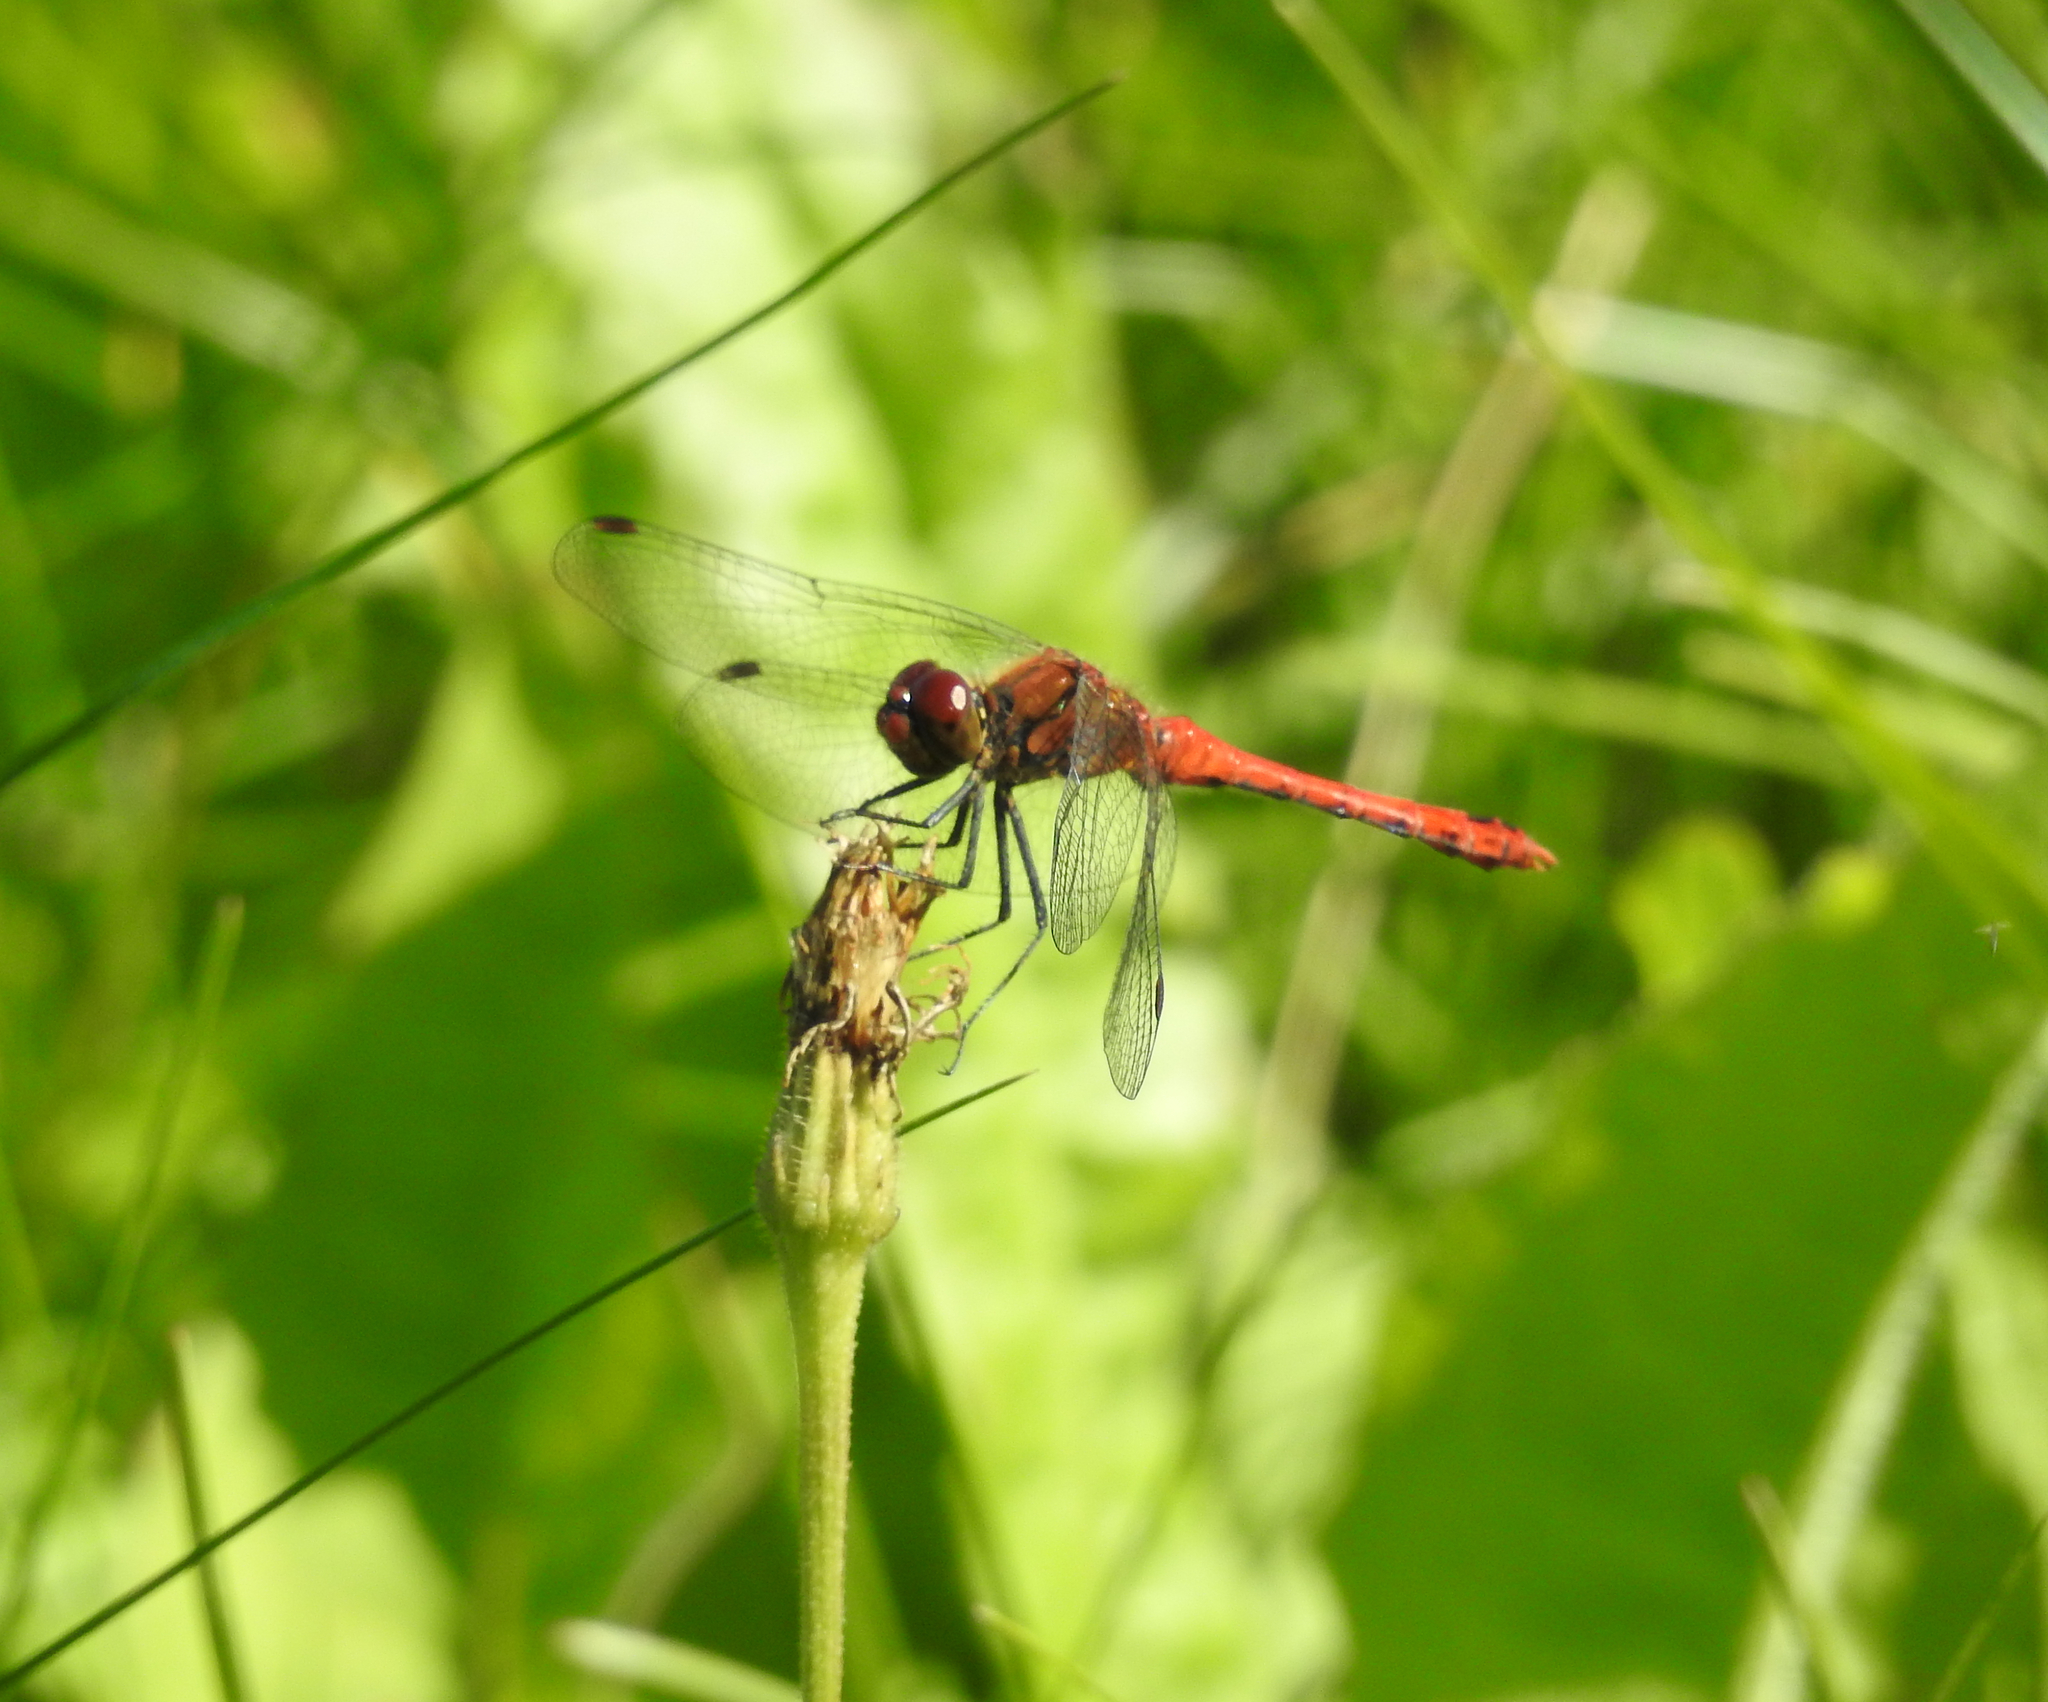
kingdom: Animalia
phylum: Arthropoda
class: Insecta
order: Odonata
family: Libellulidae
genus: Sympetrum
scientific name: Sympetrum sanguineum
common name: Ruddy darter
